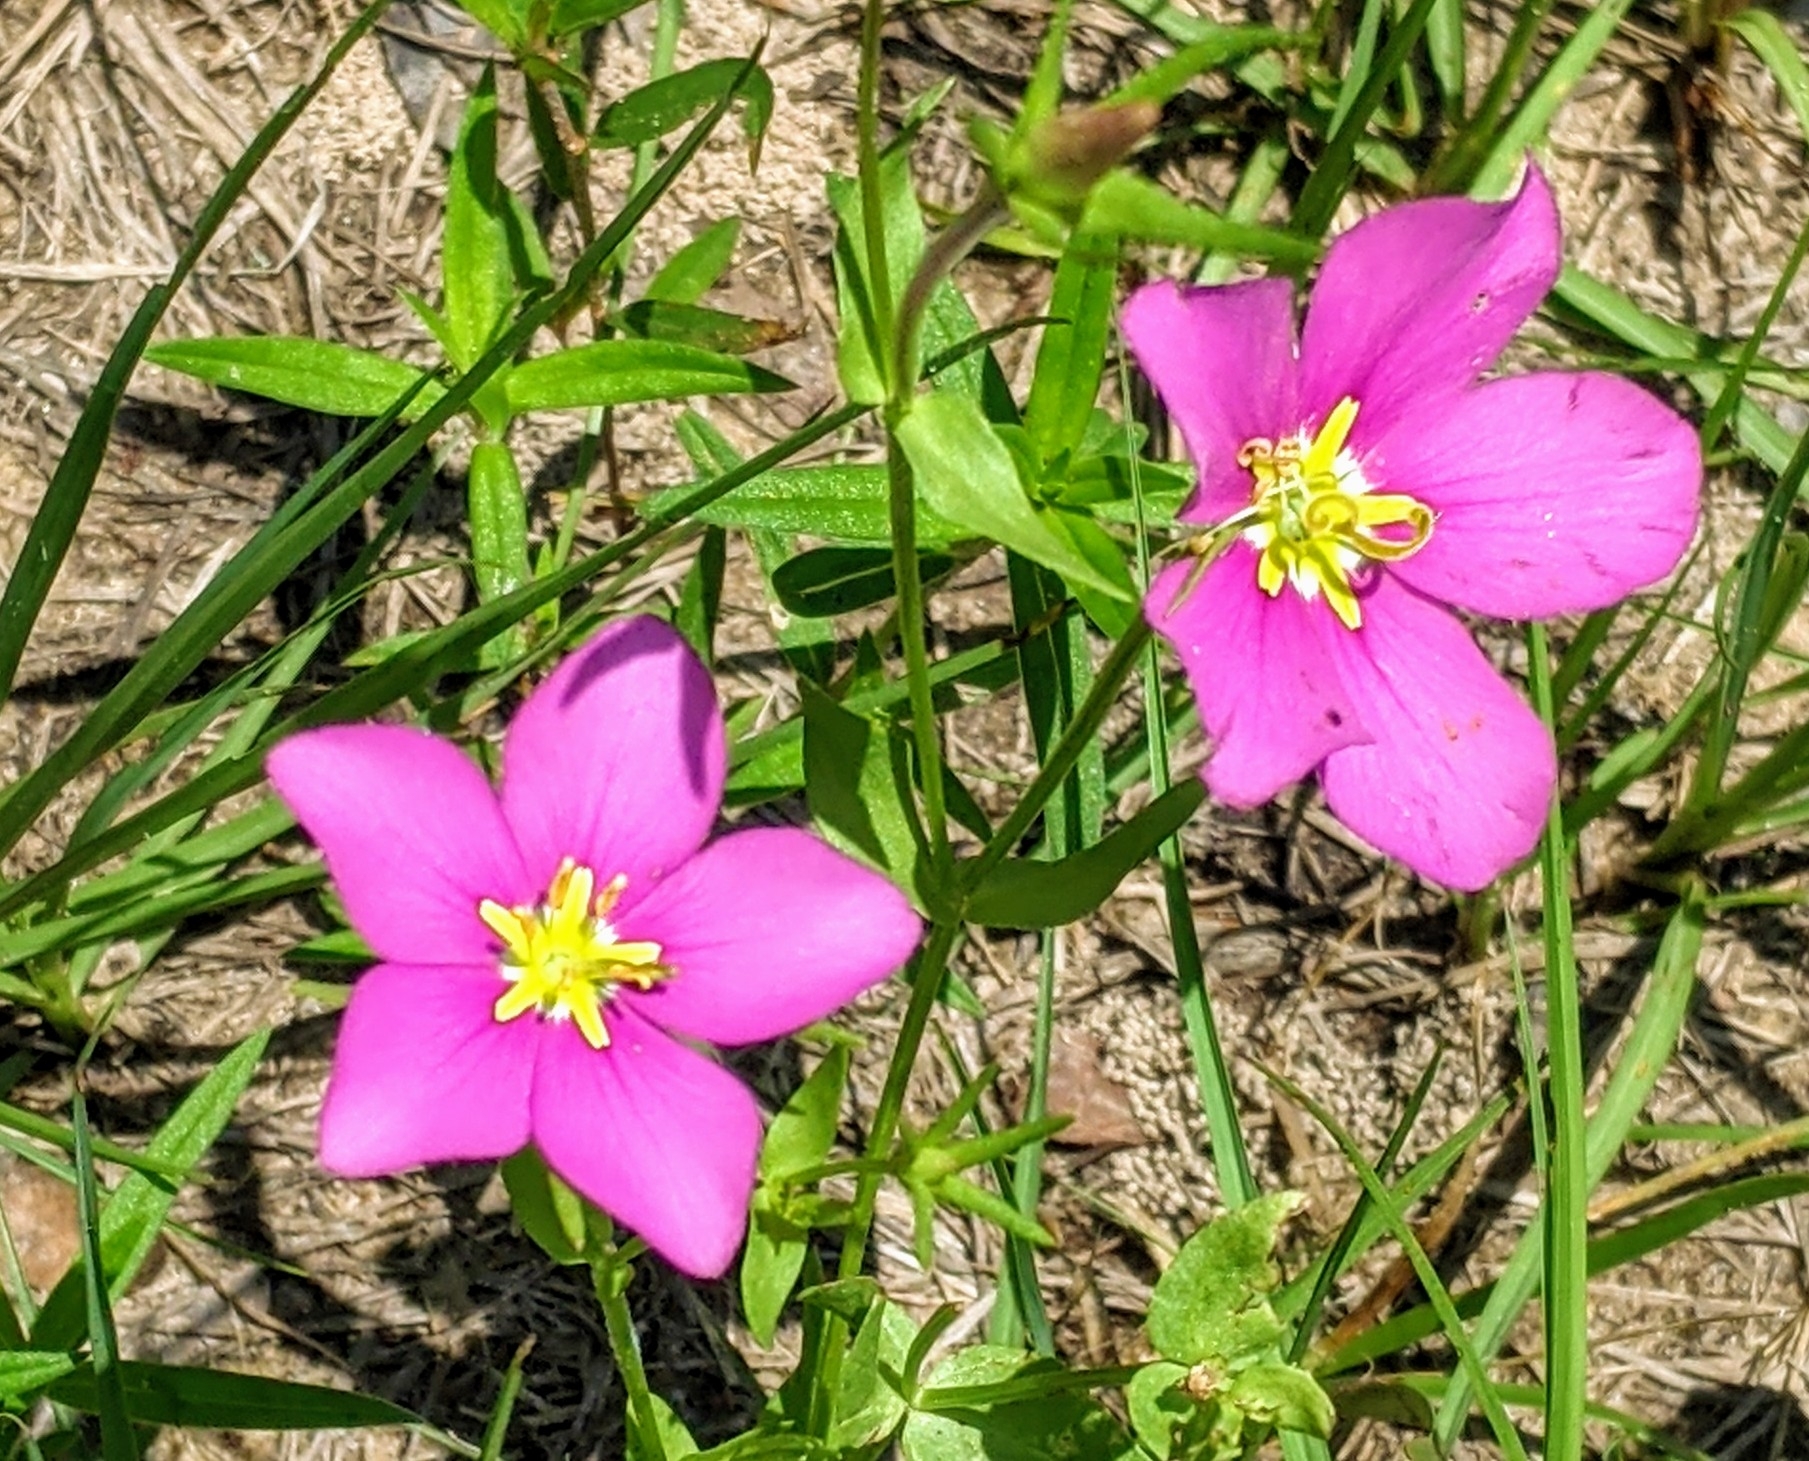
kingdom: Plantae
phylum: Tracheophyta
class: Magnoliopsida
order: Gentianales
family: Gentianaceae
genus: Sabatia
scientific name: Sabatia campestris
